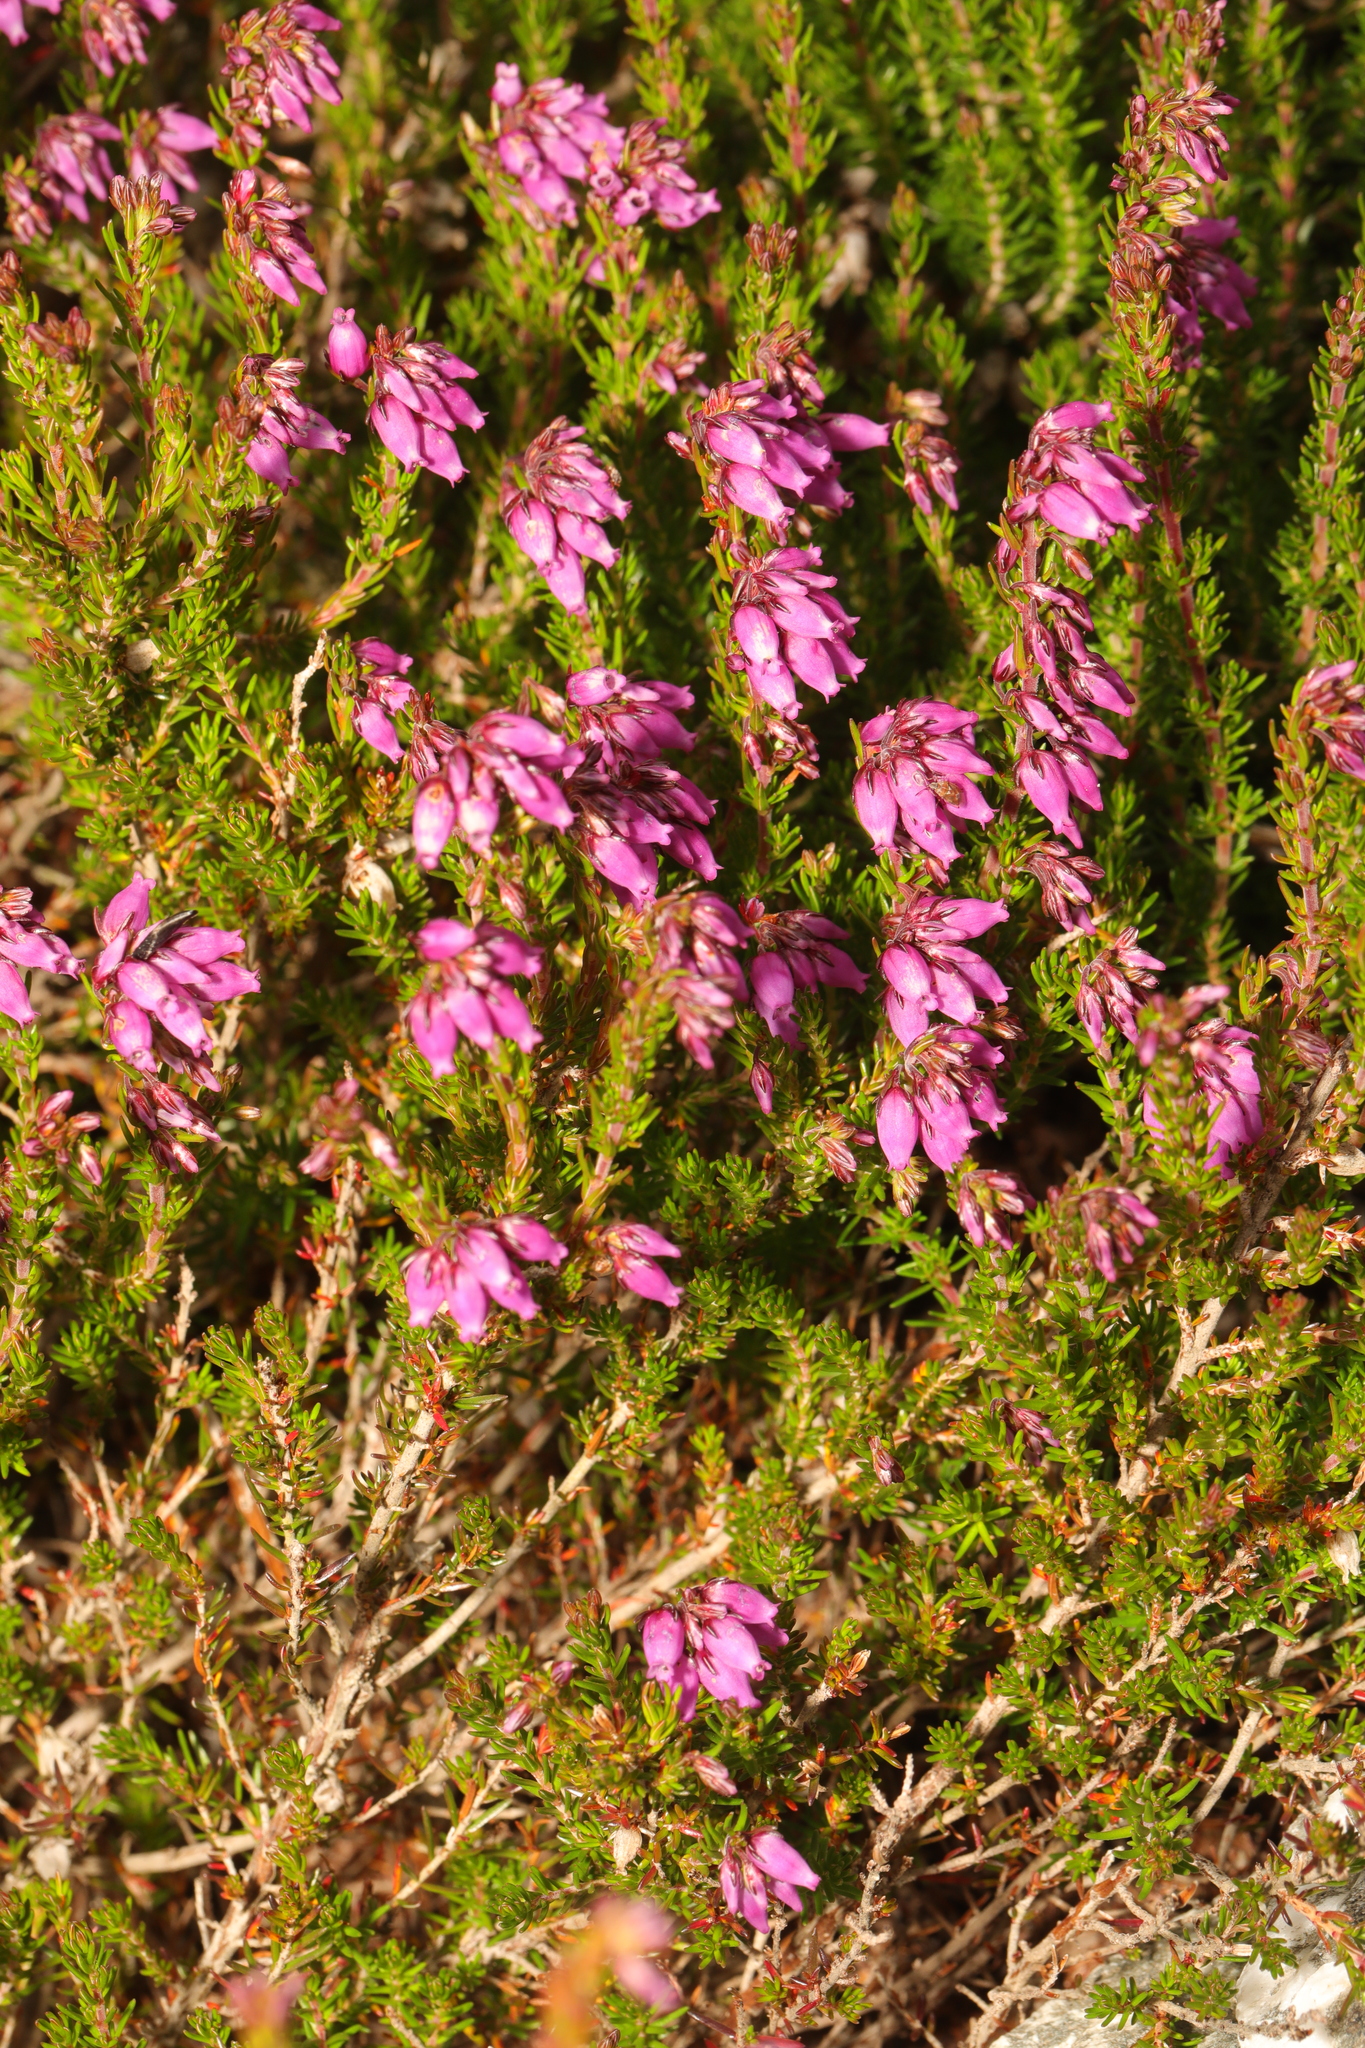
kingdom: Plantae
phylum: Tracheophyta
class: Magnoliopsida
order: Ericales
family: Ericaceae
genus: Erica
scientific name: Erica cinerea
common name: Bell heather
